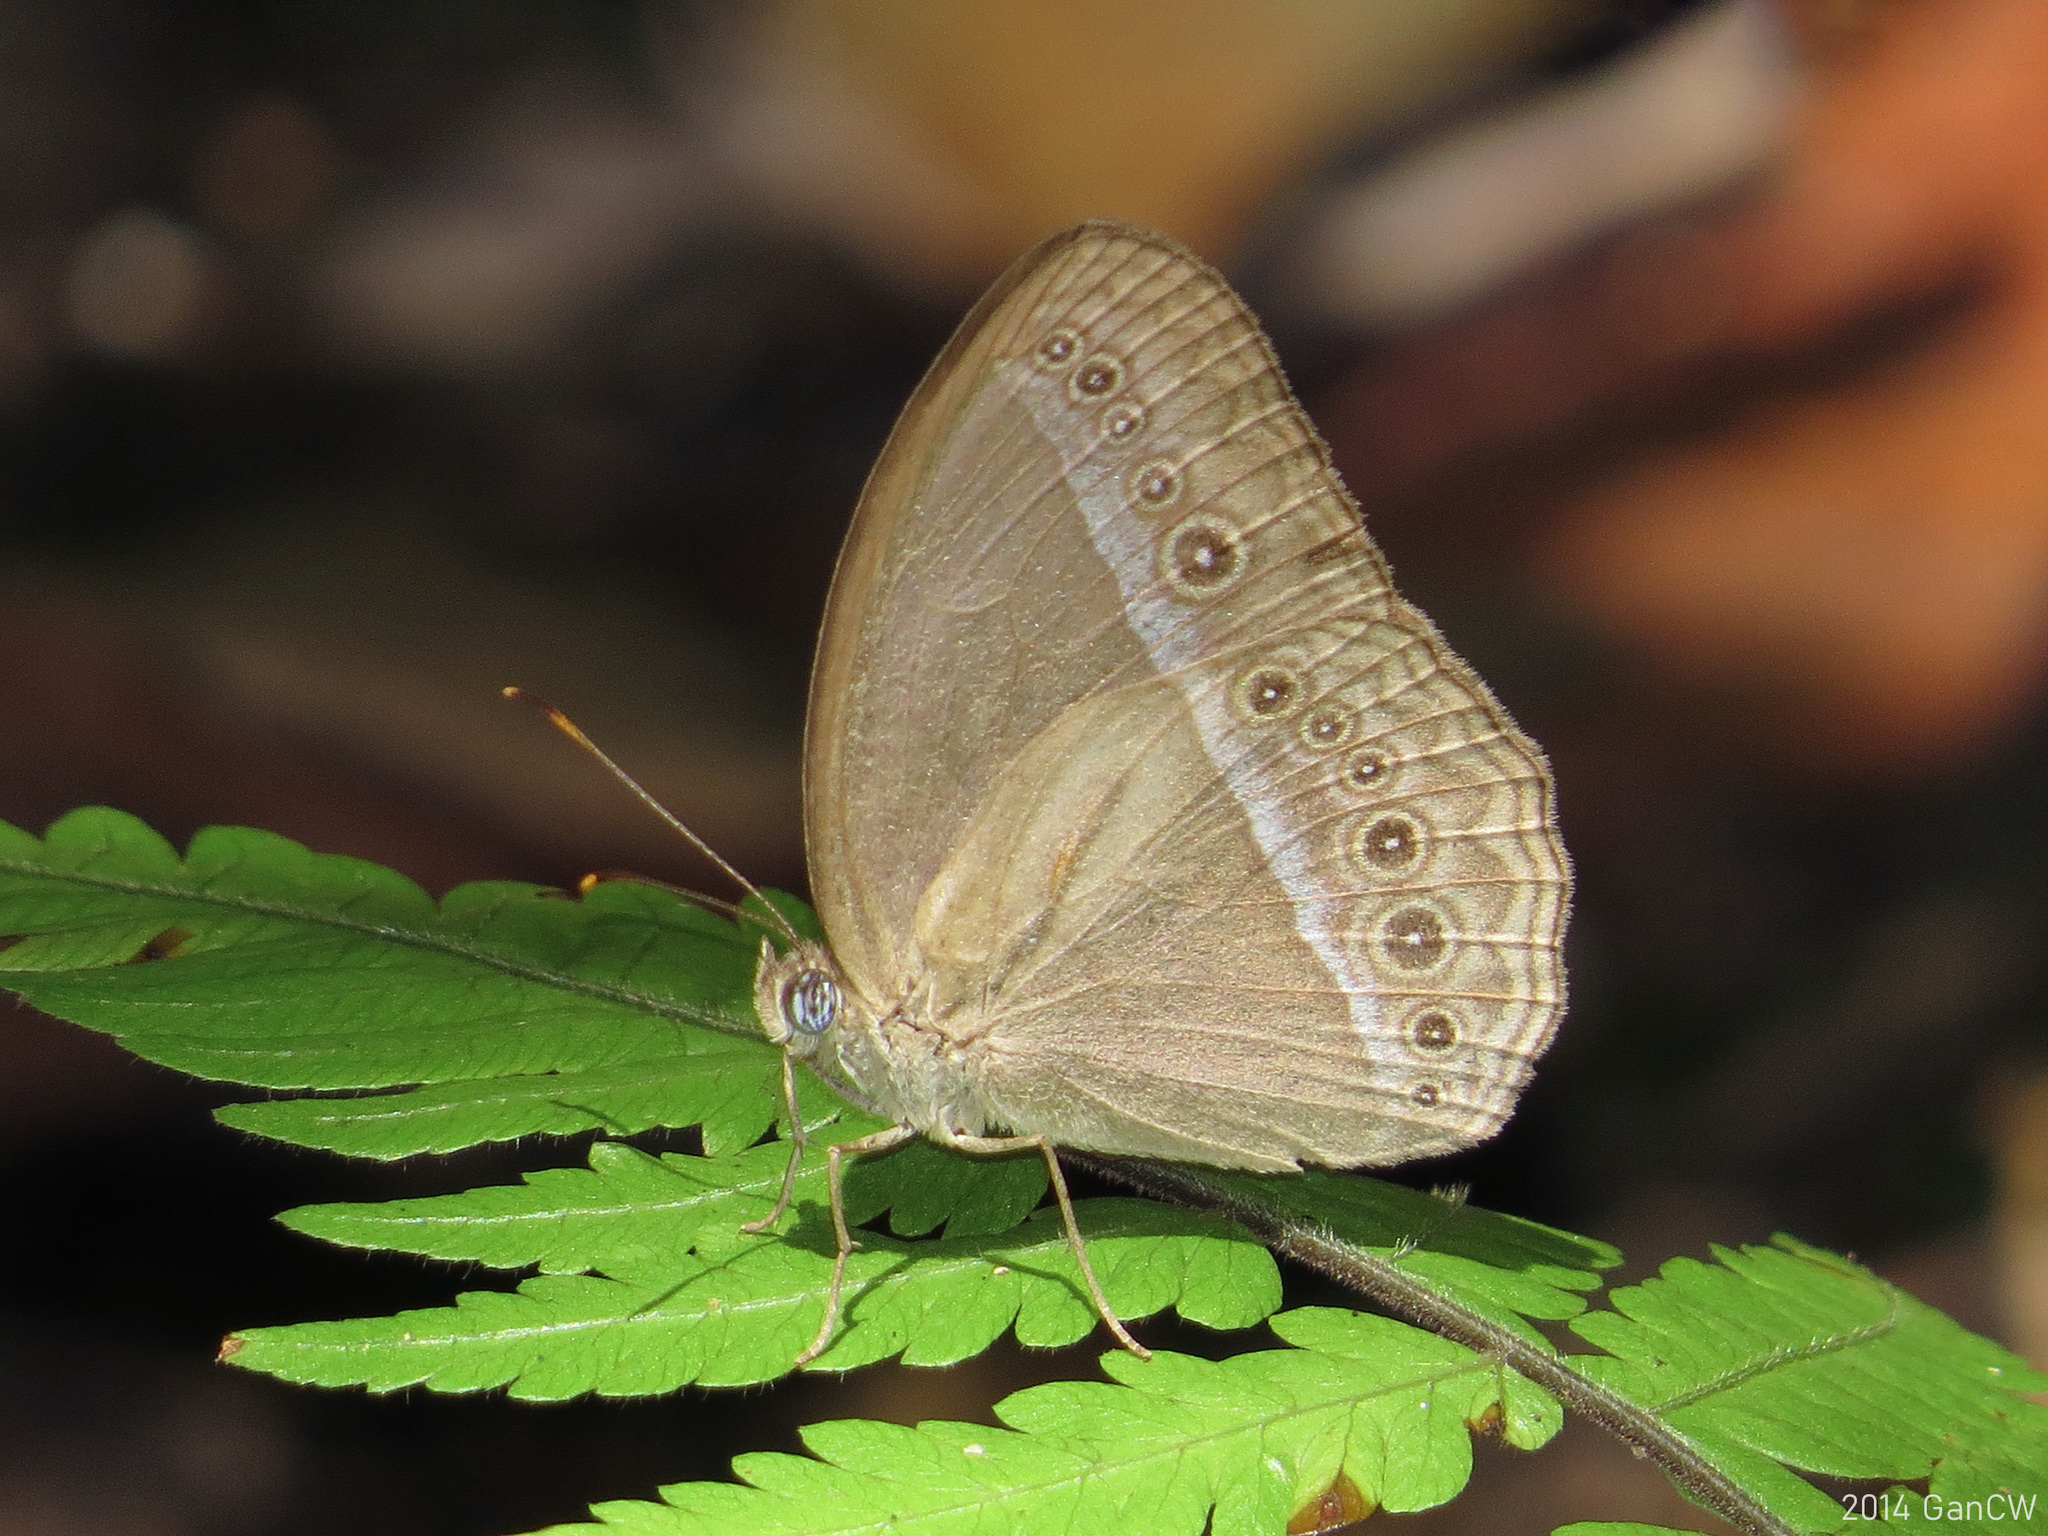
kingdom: Animalia
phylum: Arthropoda
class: Insecta
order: Lepidoptera
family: Nymphalidae
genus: Mycalesis
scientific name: Mycalesis orseis
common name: Purple bushbrown
